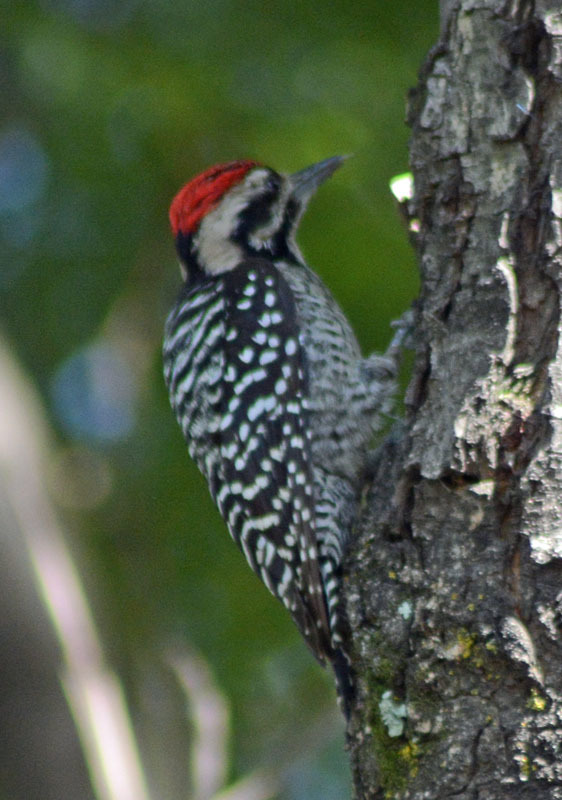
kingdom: Animalia
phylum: Chordata
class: Aves
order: Piciformes
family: Picidae
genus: Dryobates
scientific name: Dryobates scalaris
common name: Ladder-backed woodpecker
